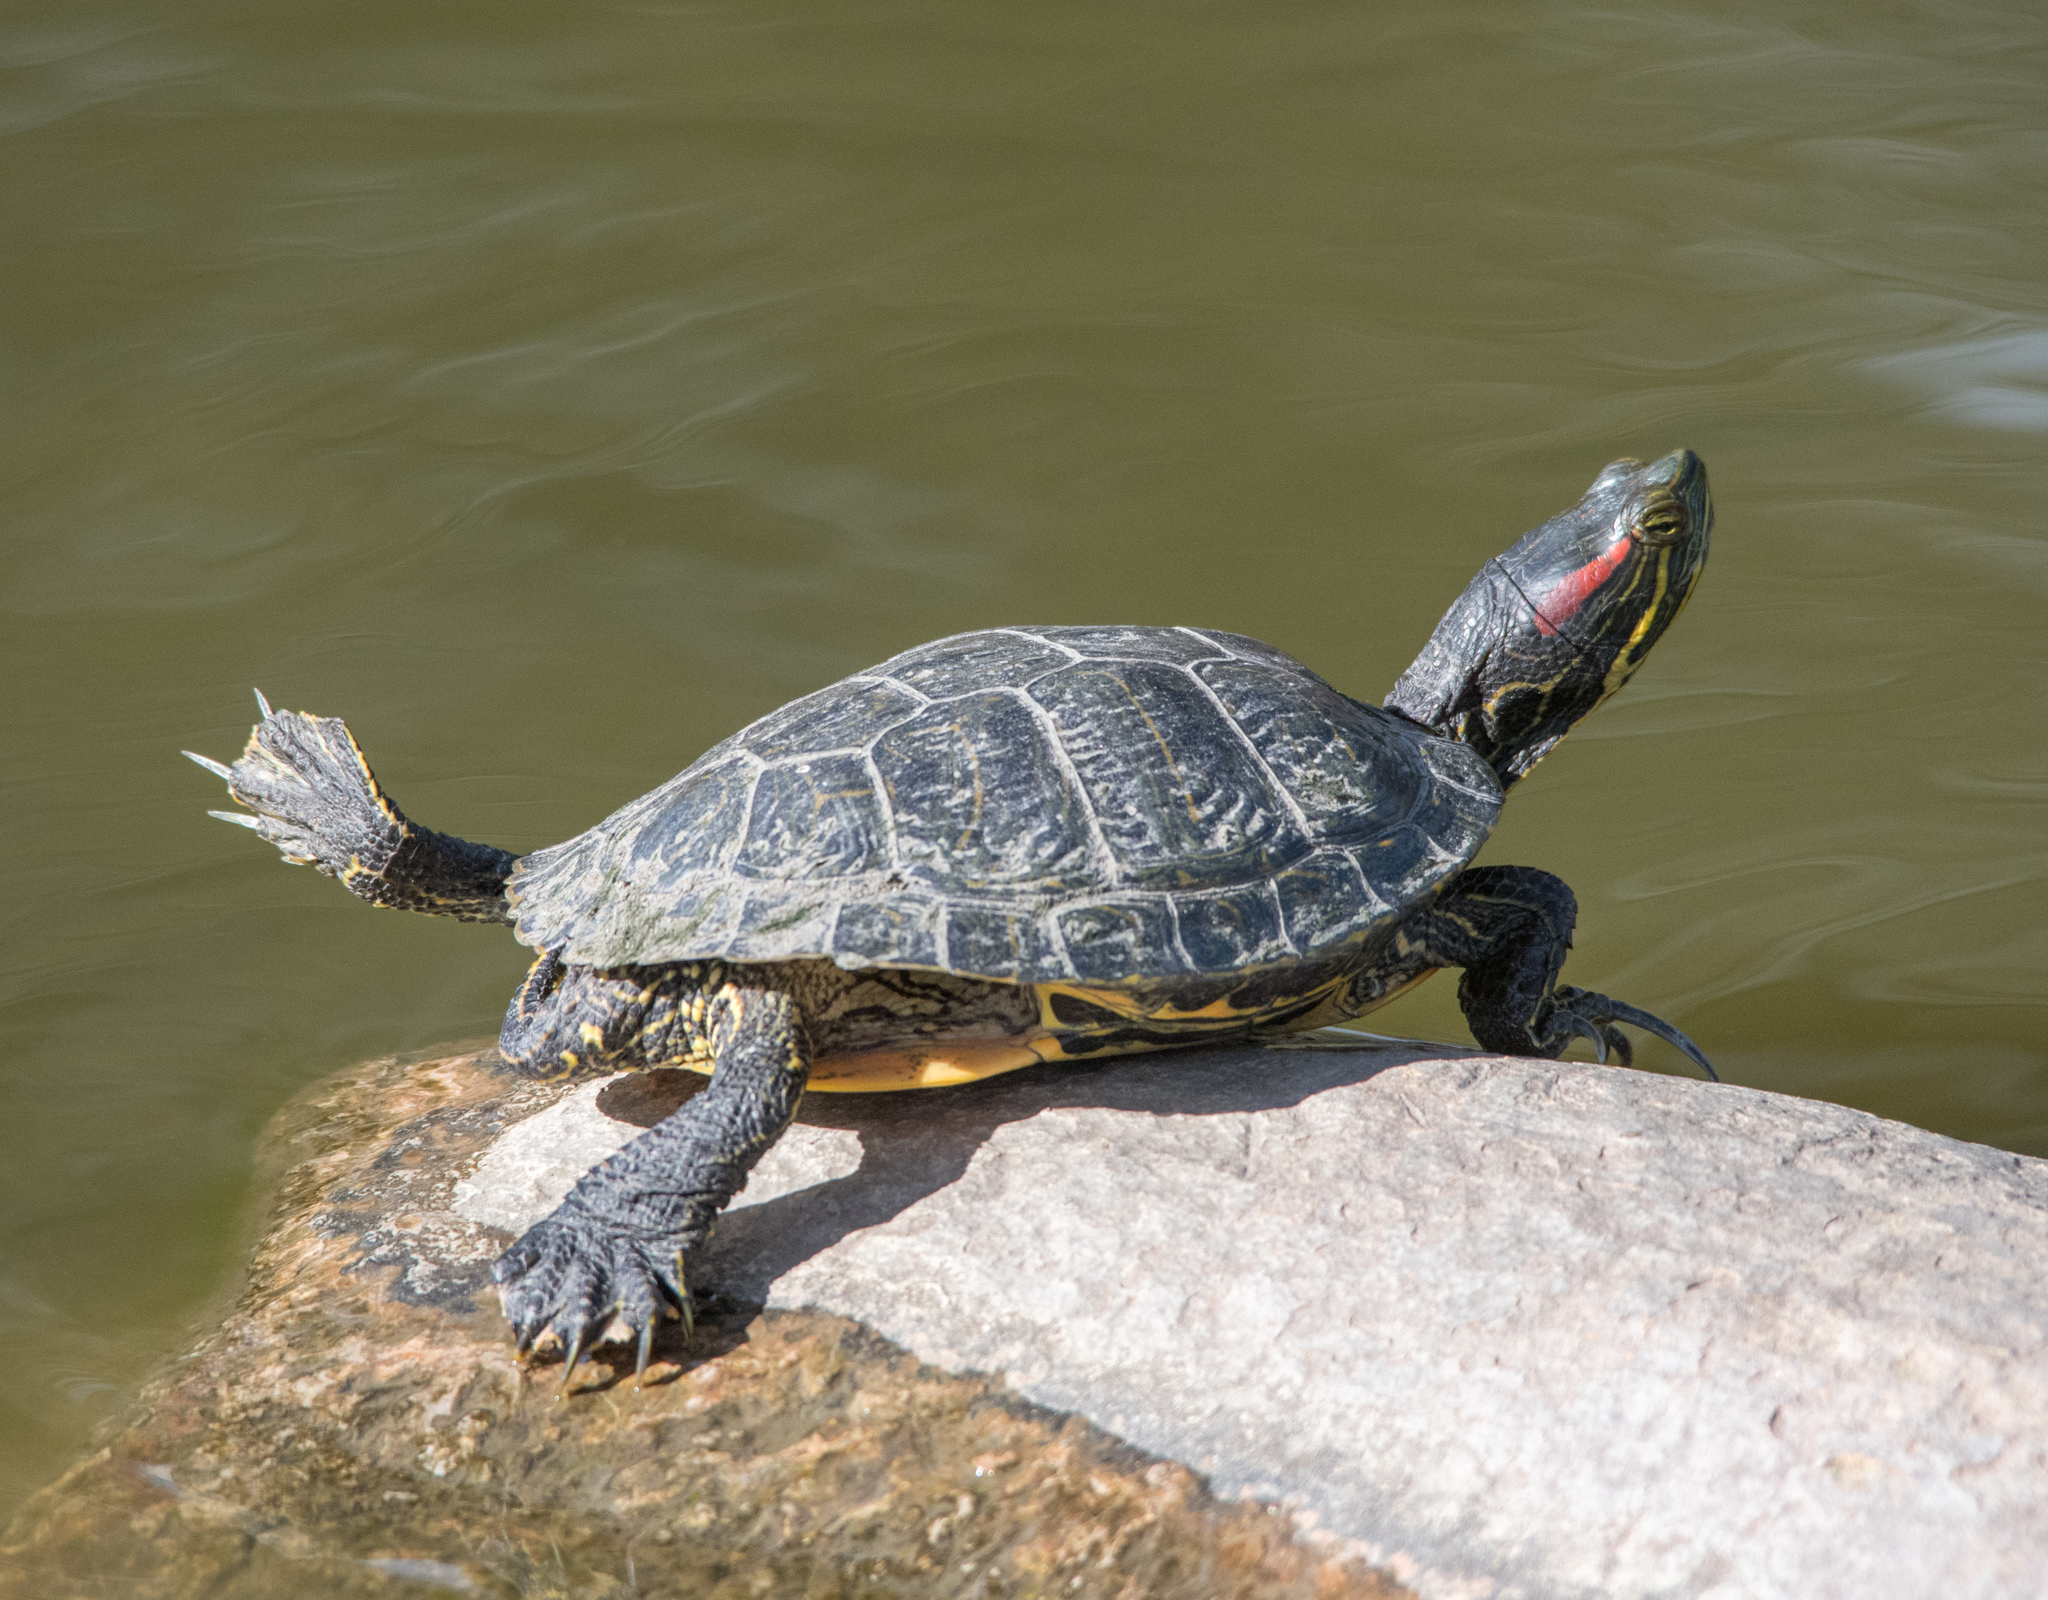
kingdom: Animalia
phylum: Chordata
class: Testudines
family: Emydidae
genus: Trachemys
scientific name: Trachemys scripta
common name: Slider
